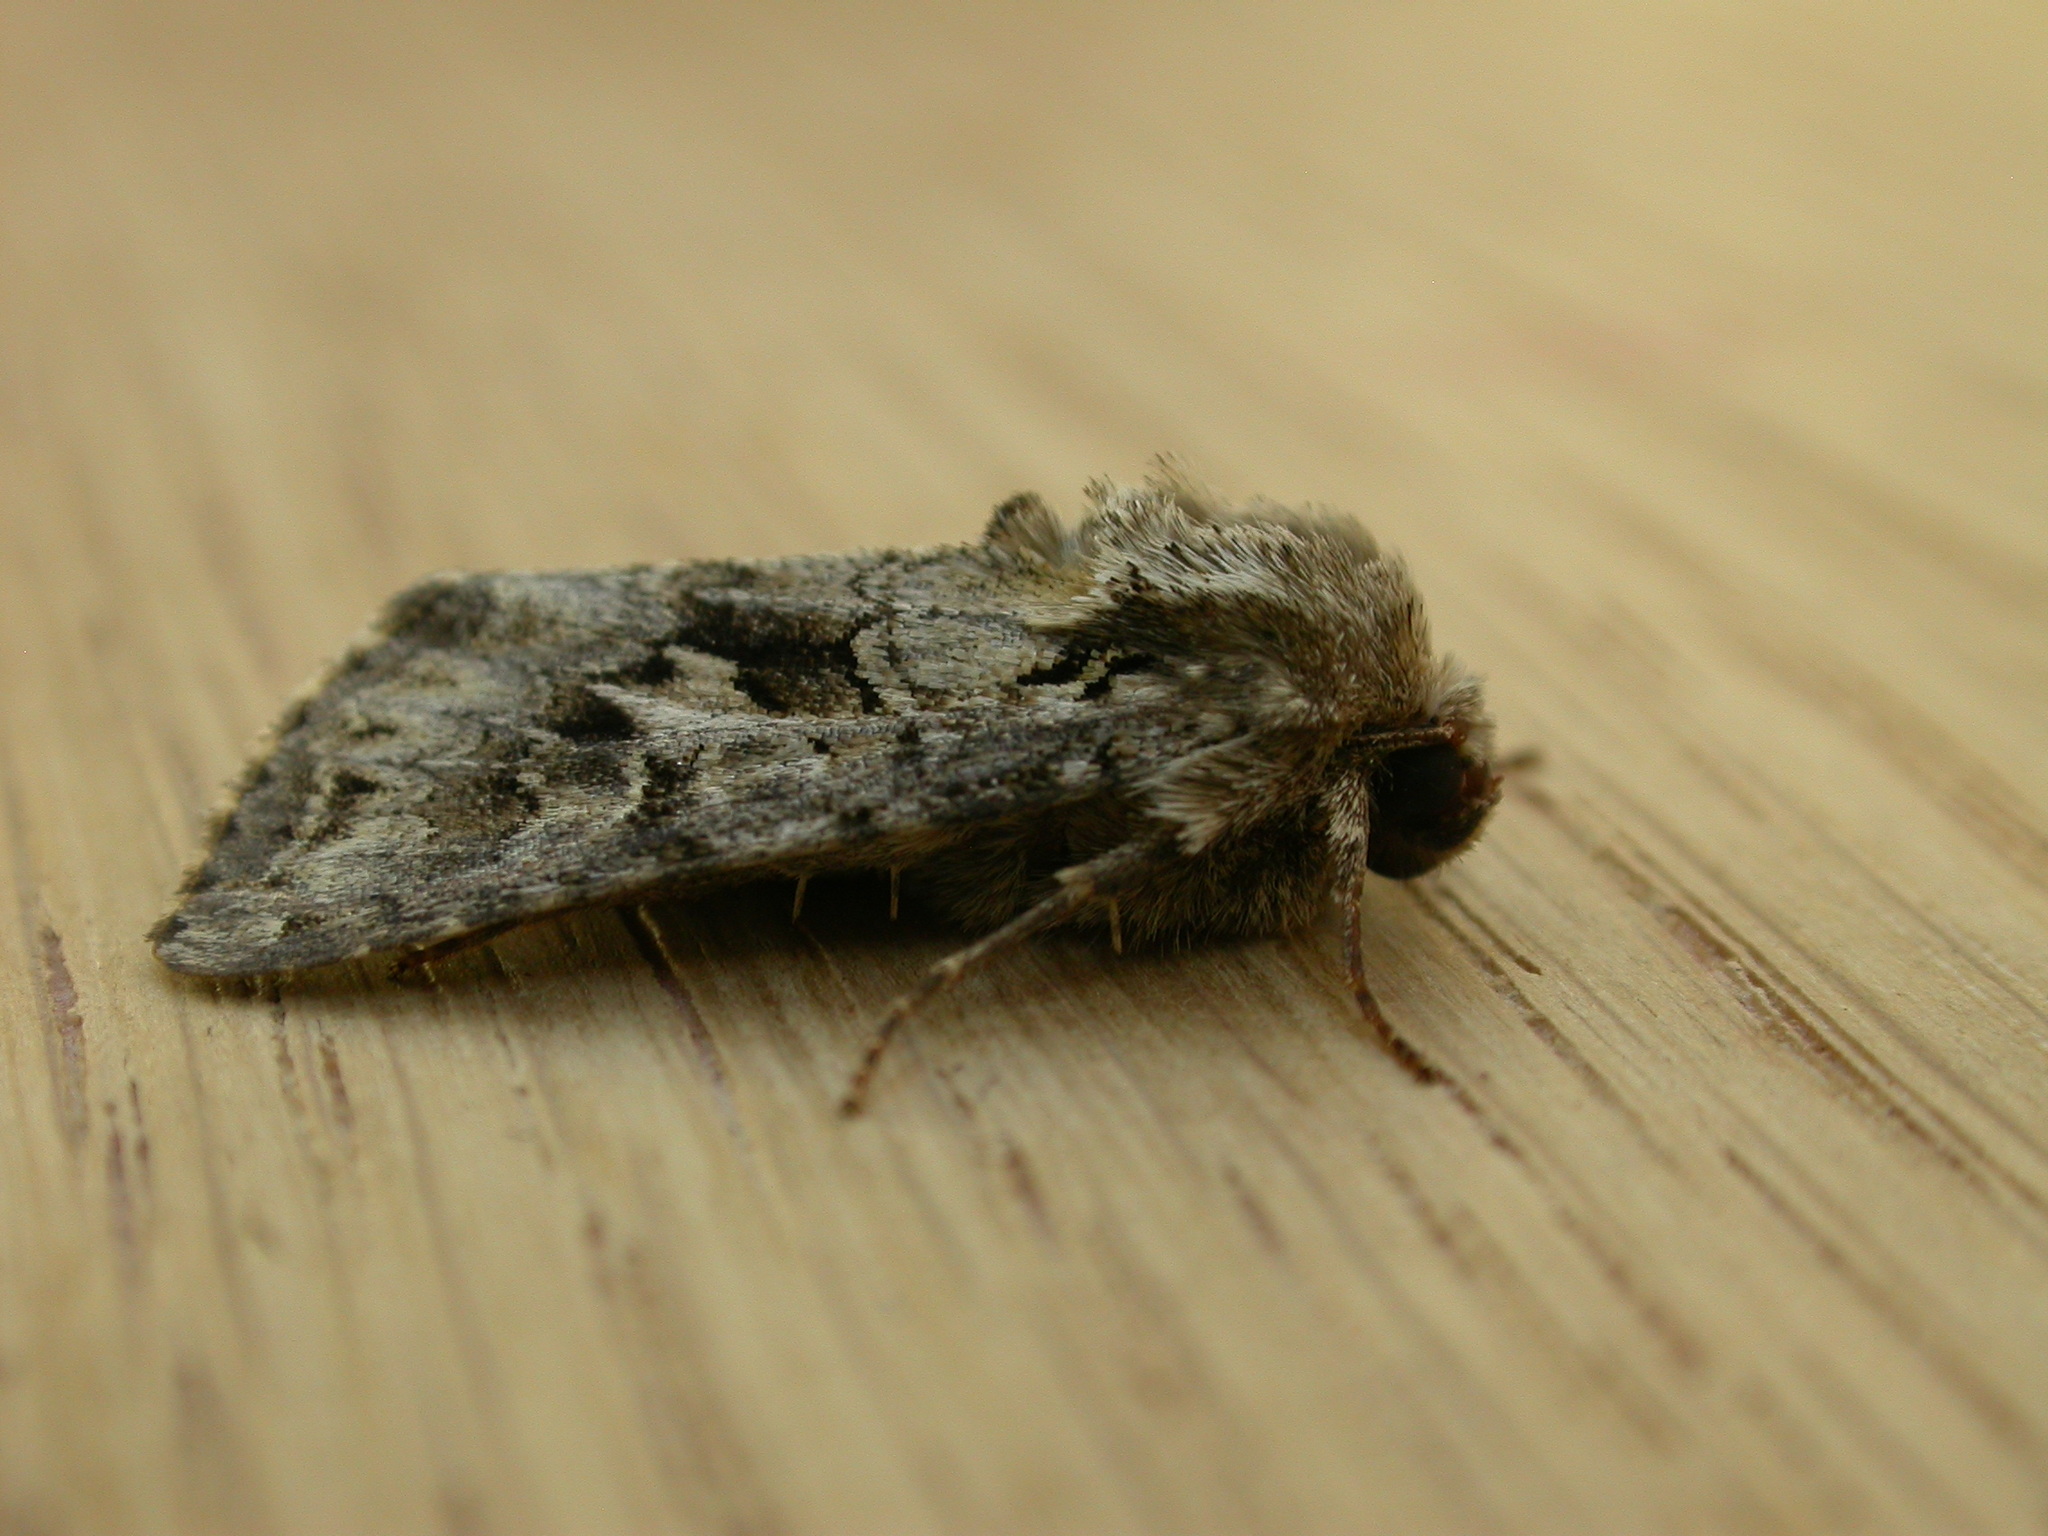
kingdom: Animalia
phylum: Arthropoda
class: Insecta
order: Lepidoptera
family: Noctuidae
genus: Hada
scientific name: Hada plebeja
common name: Shears
